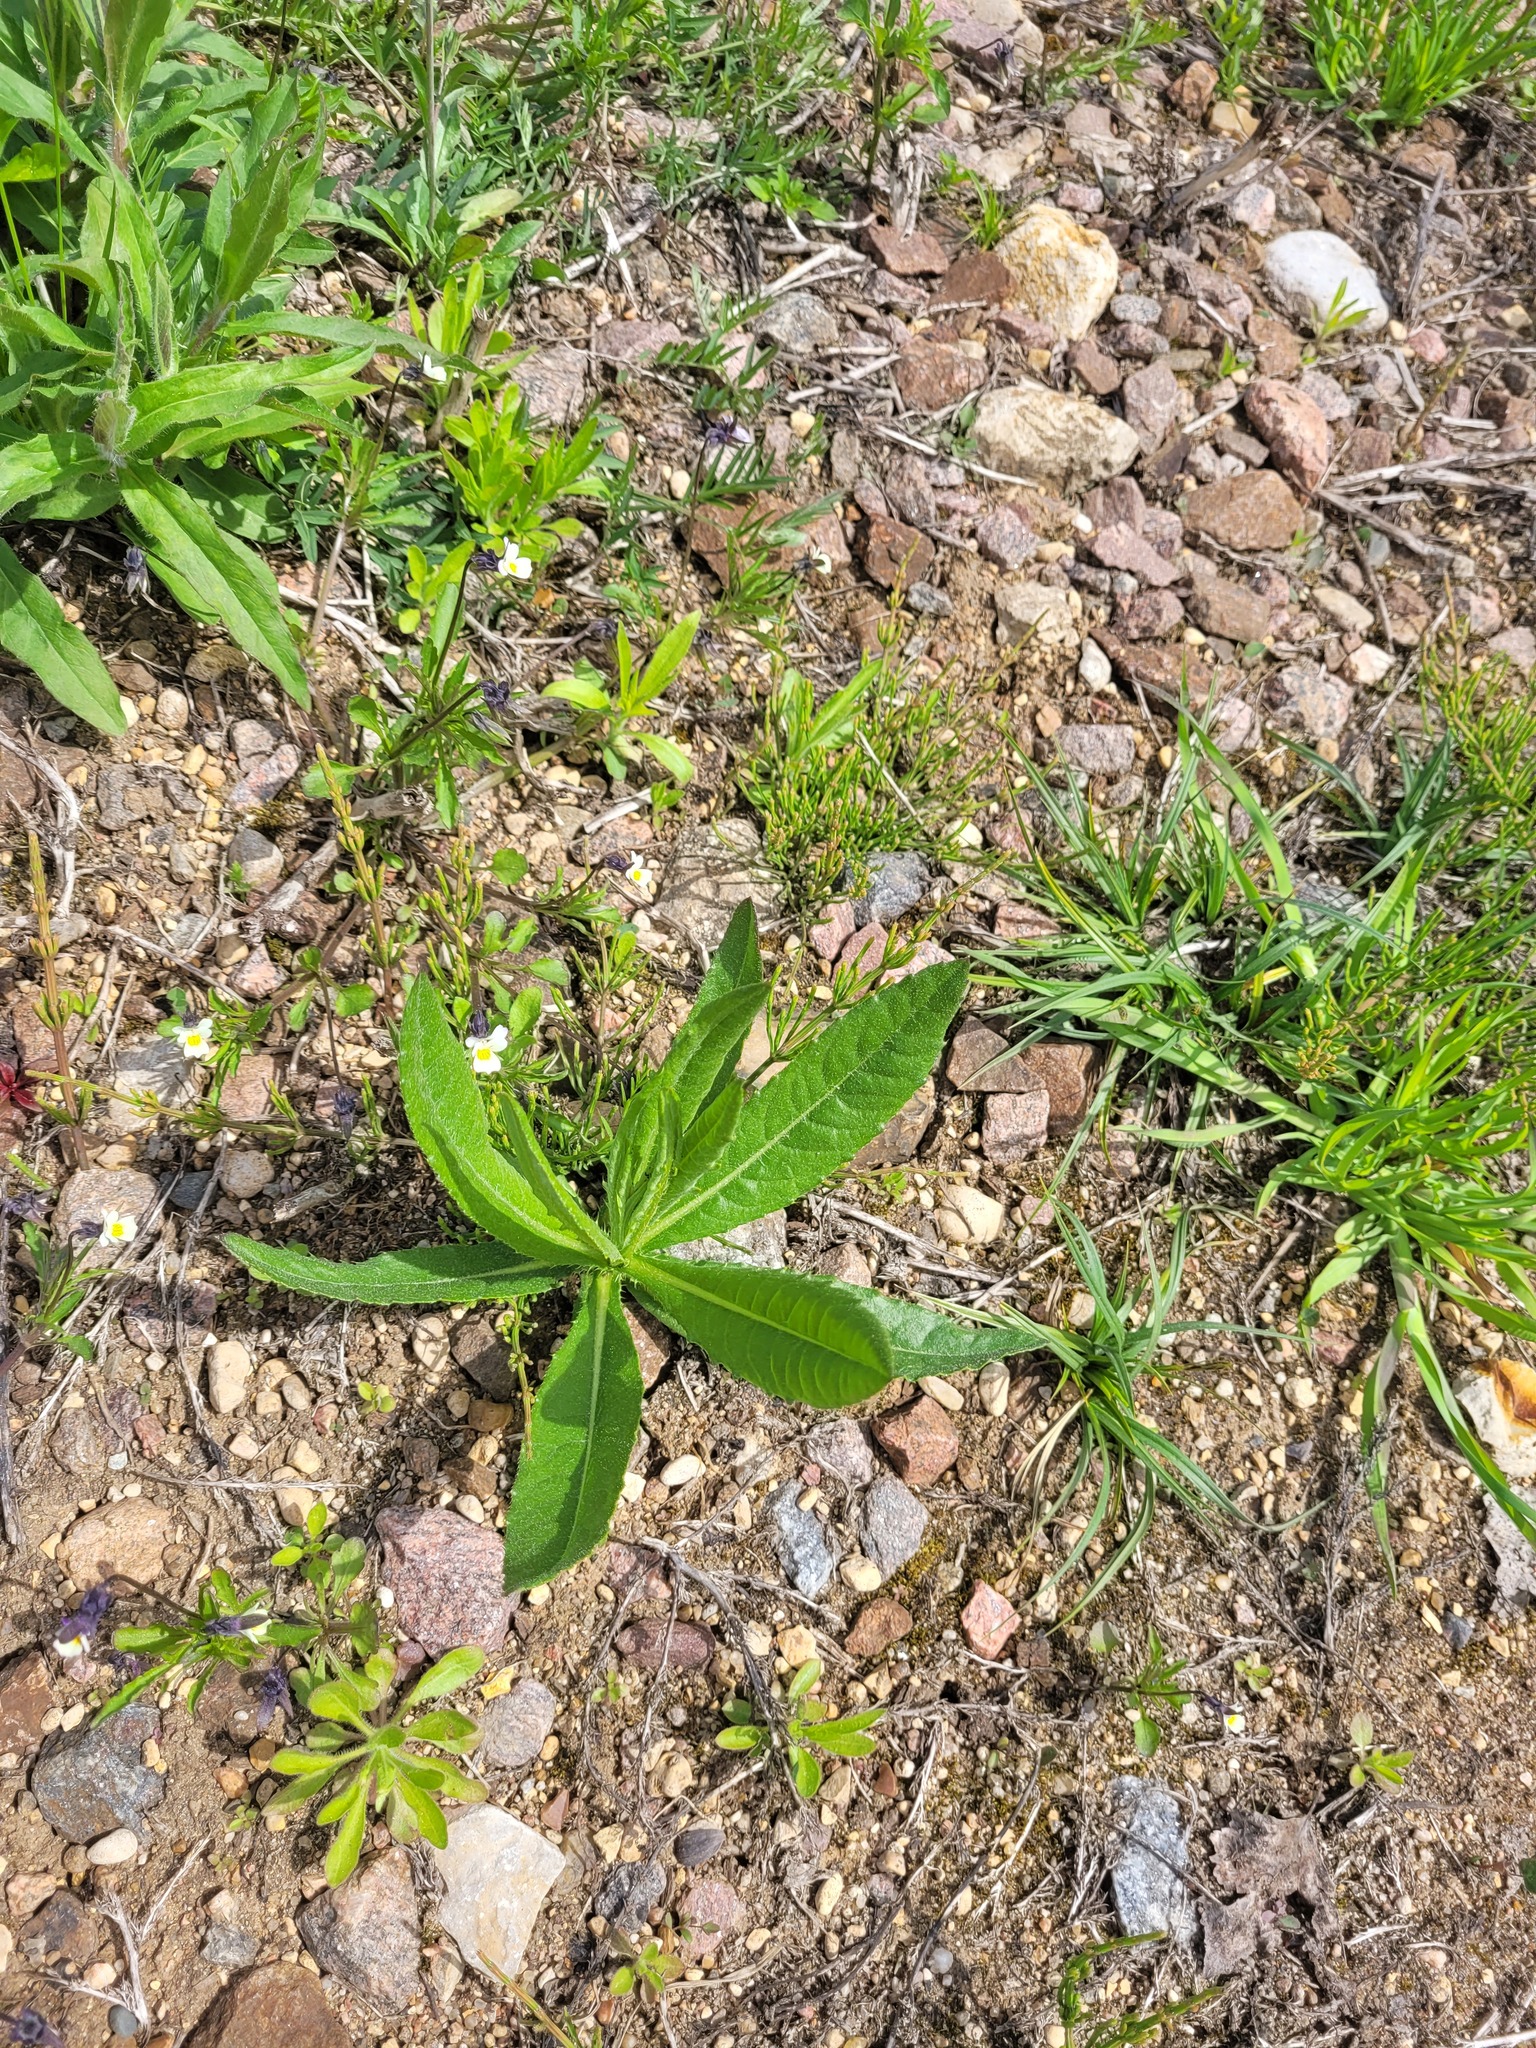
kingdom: Plantae
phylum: Tracheophyta
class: Magnoliopsida
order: Asterales
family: Asteraceae
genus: Cirsium
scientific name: Cirsium arvense
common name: Creeping thistle
